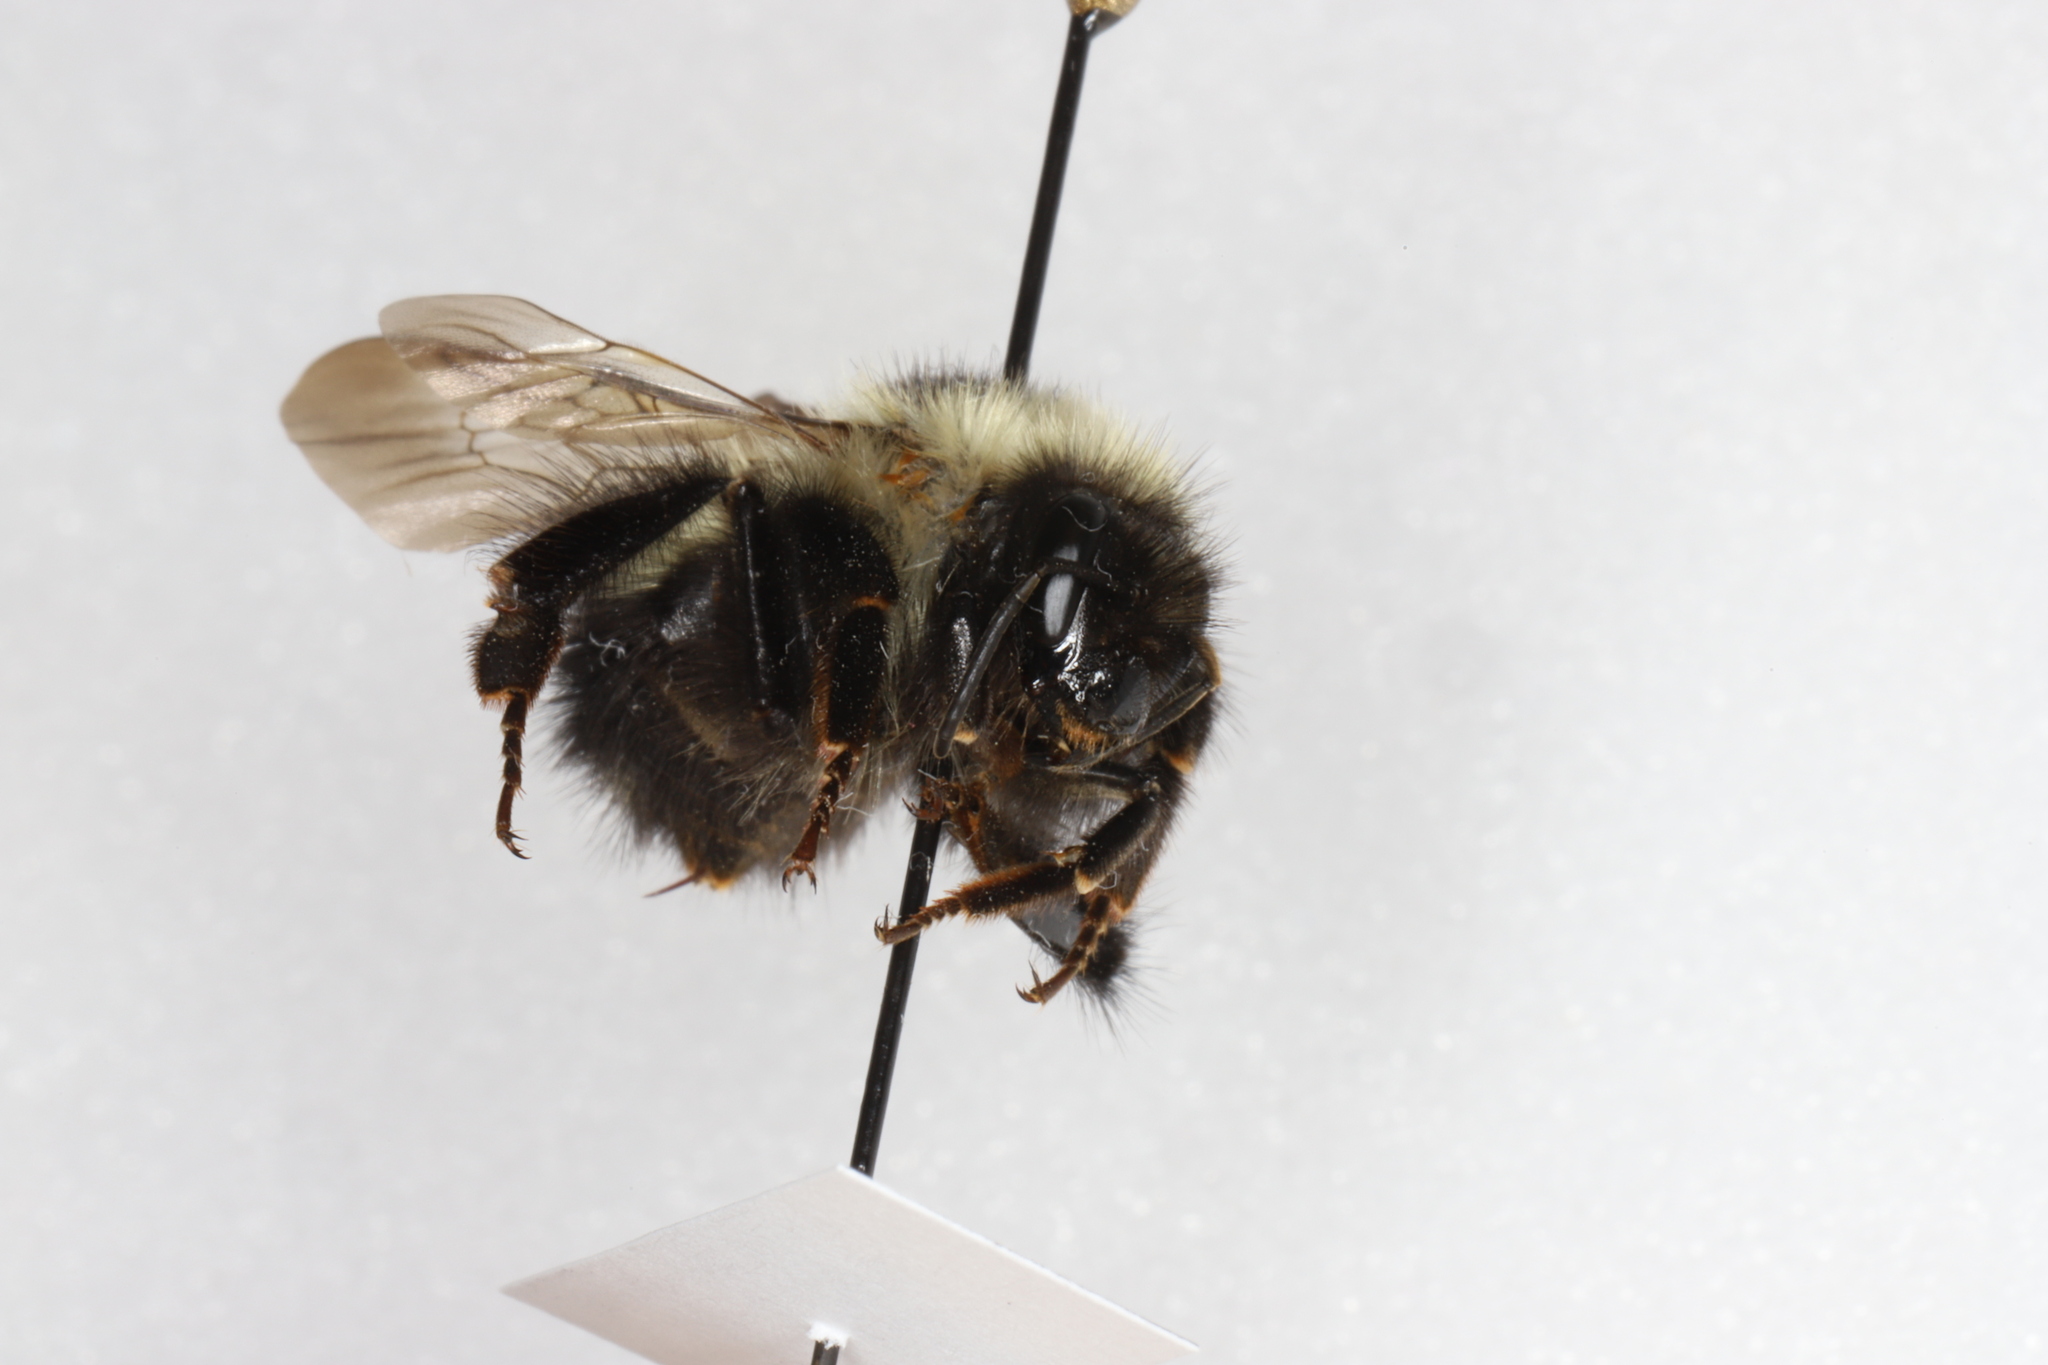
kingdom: Animalia
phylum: Arthropoda
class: Insecta
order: Hymenoptera
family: Apidae
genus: Bombus
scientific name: Bombus sandersoni
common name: Sanderson bumble bee
